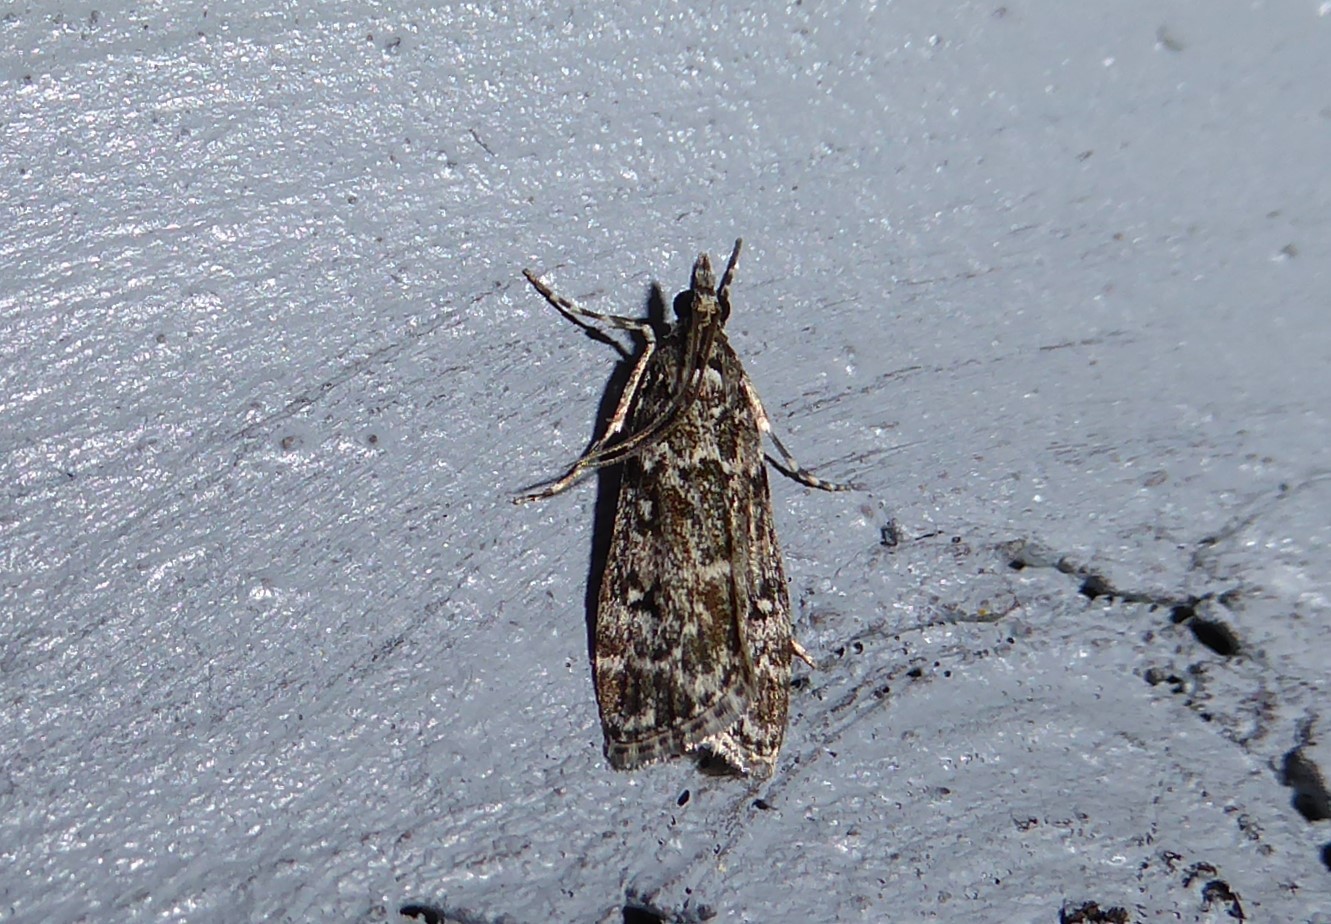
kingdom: Animalia
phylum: Arthropoda
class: Insecta
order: Lepidoptera
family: Crambidae
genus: Eudonia
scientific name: Eudonia philerga
